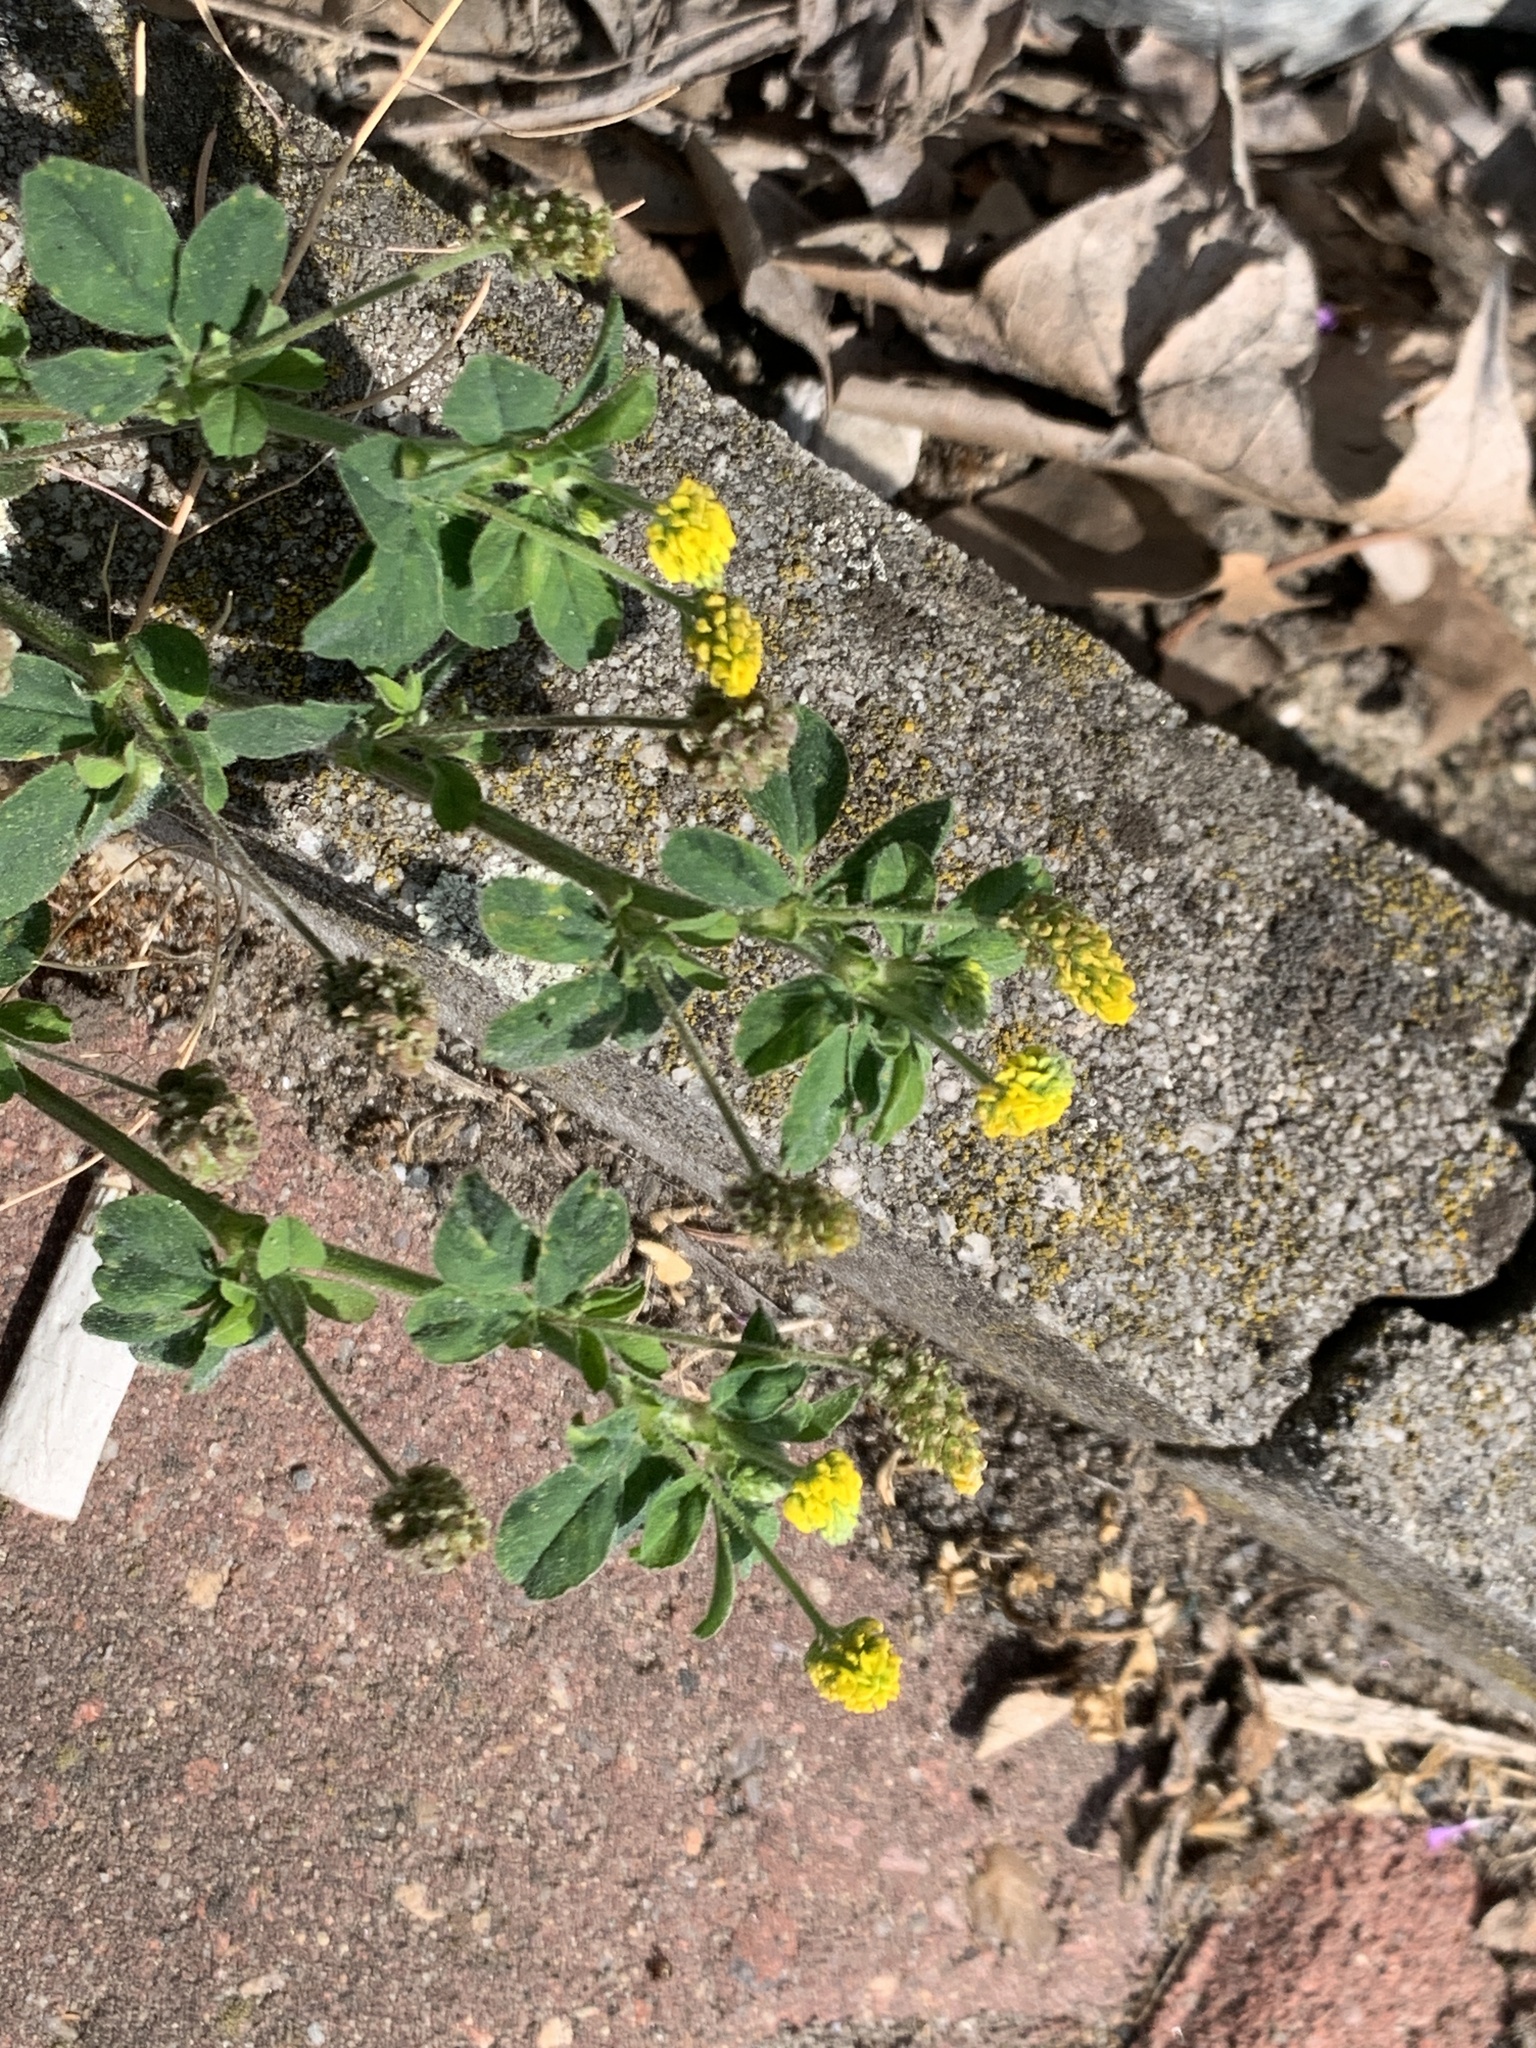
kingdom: Plantae
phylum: Tracheophyta
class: Magnoliopsida
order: Fabales
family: Fabaceae
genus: Medicago
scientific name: Medicago lupulina
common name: Black medick
